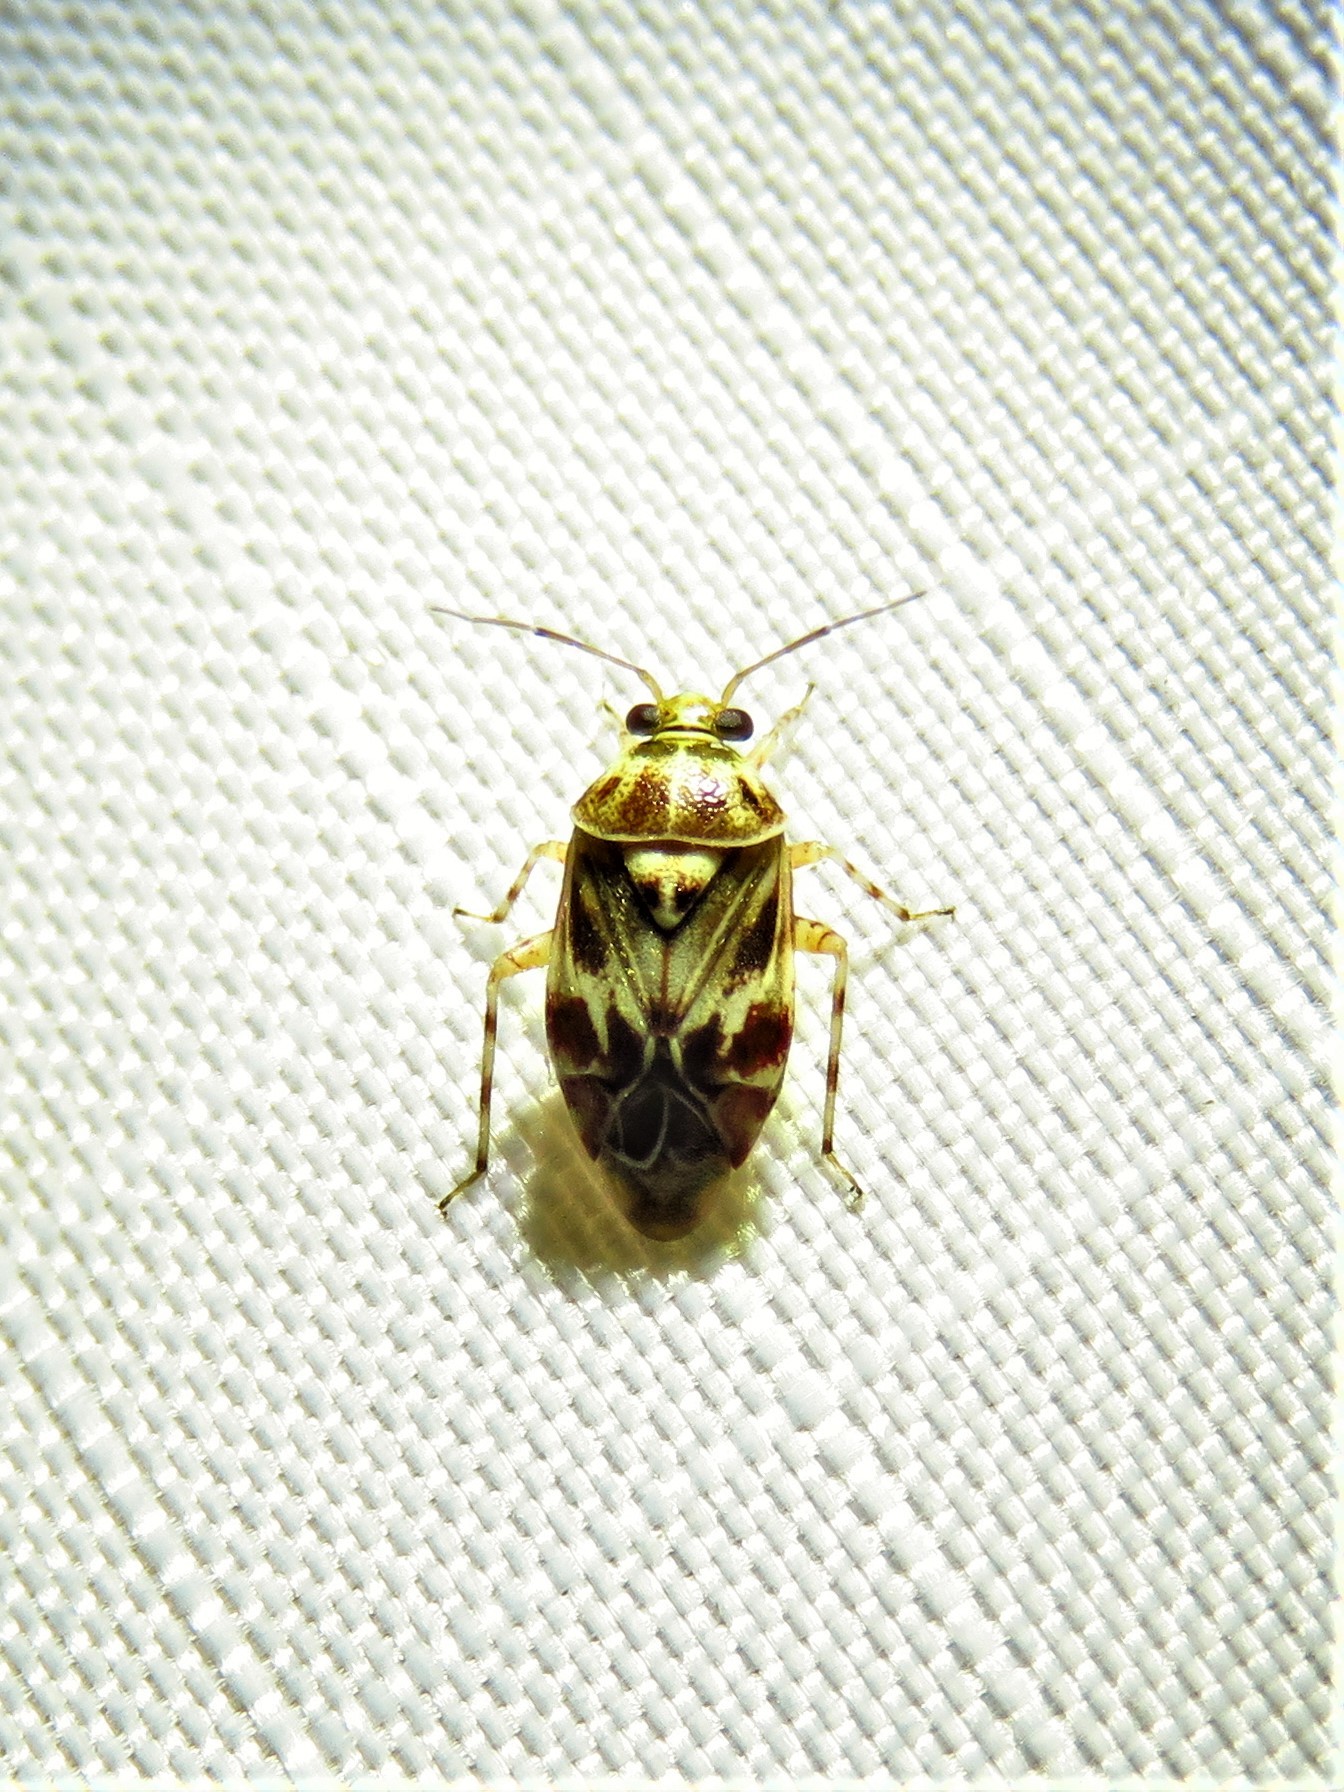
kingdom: Animalia
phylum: Arthropoda
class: Insecta
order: Hemiptera
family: Miridae
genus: Tropidosteptes
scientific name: Tropidosteptes quercicola
